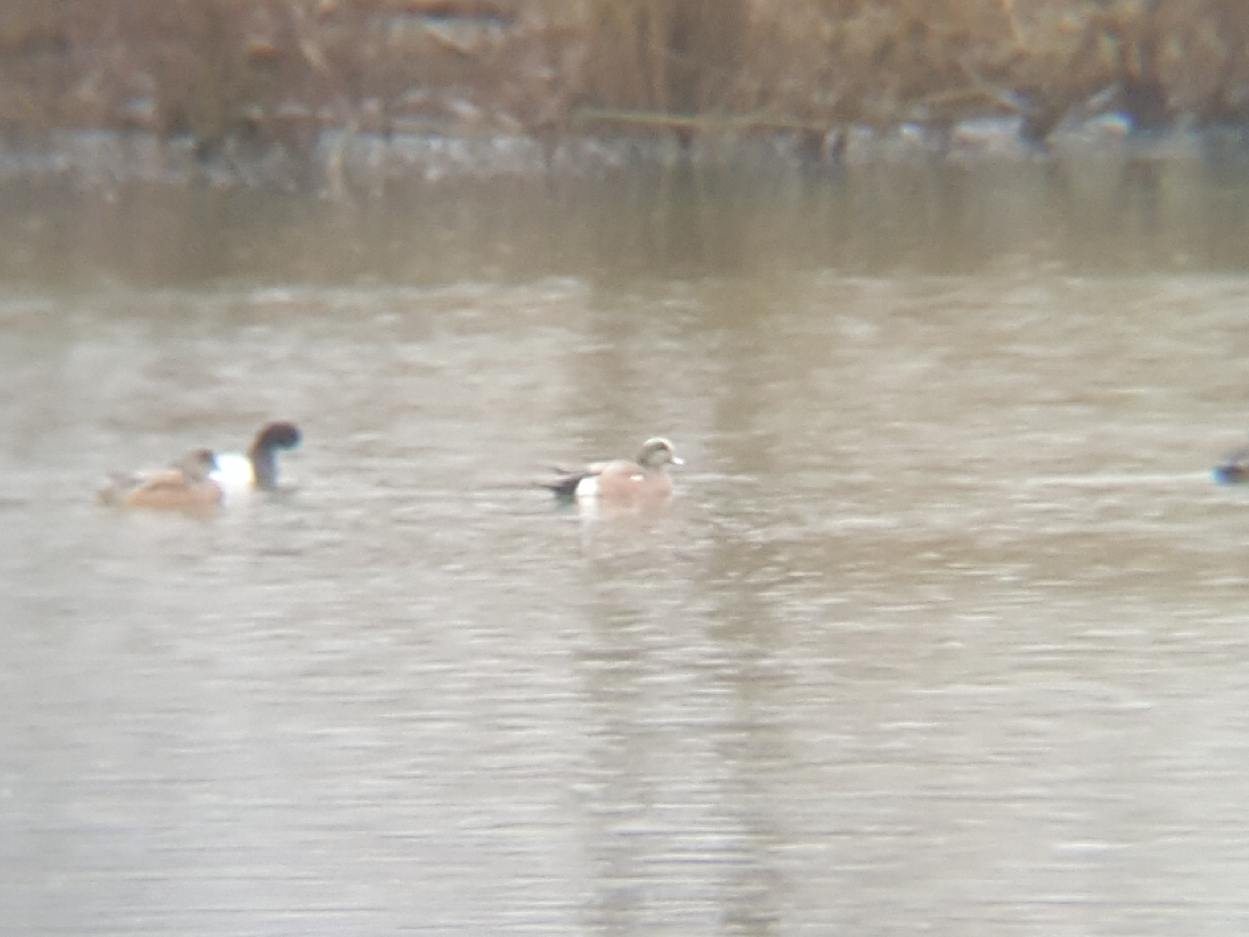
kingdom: Animalia
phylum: Chordata
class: Aves
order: Anseriformes
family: Anatidae
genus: Mareca
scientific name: Mareca americana
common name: American wigeon
